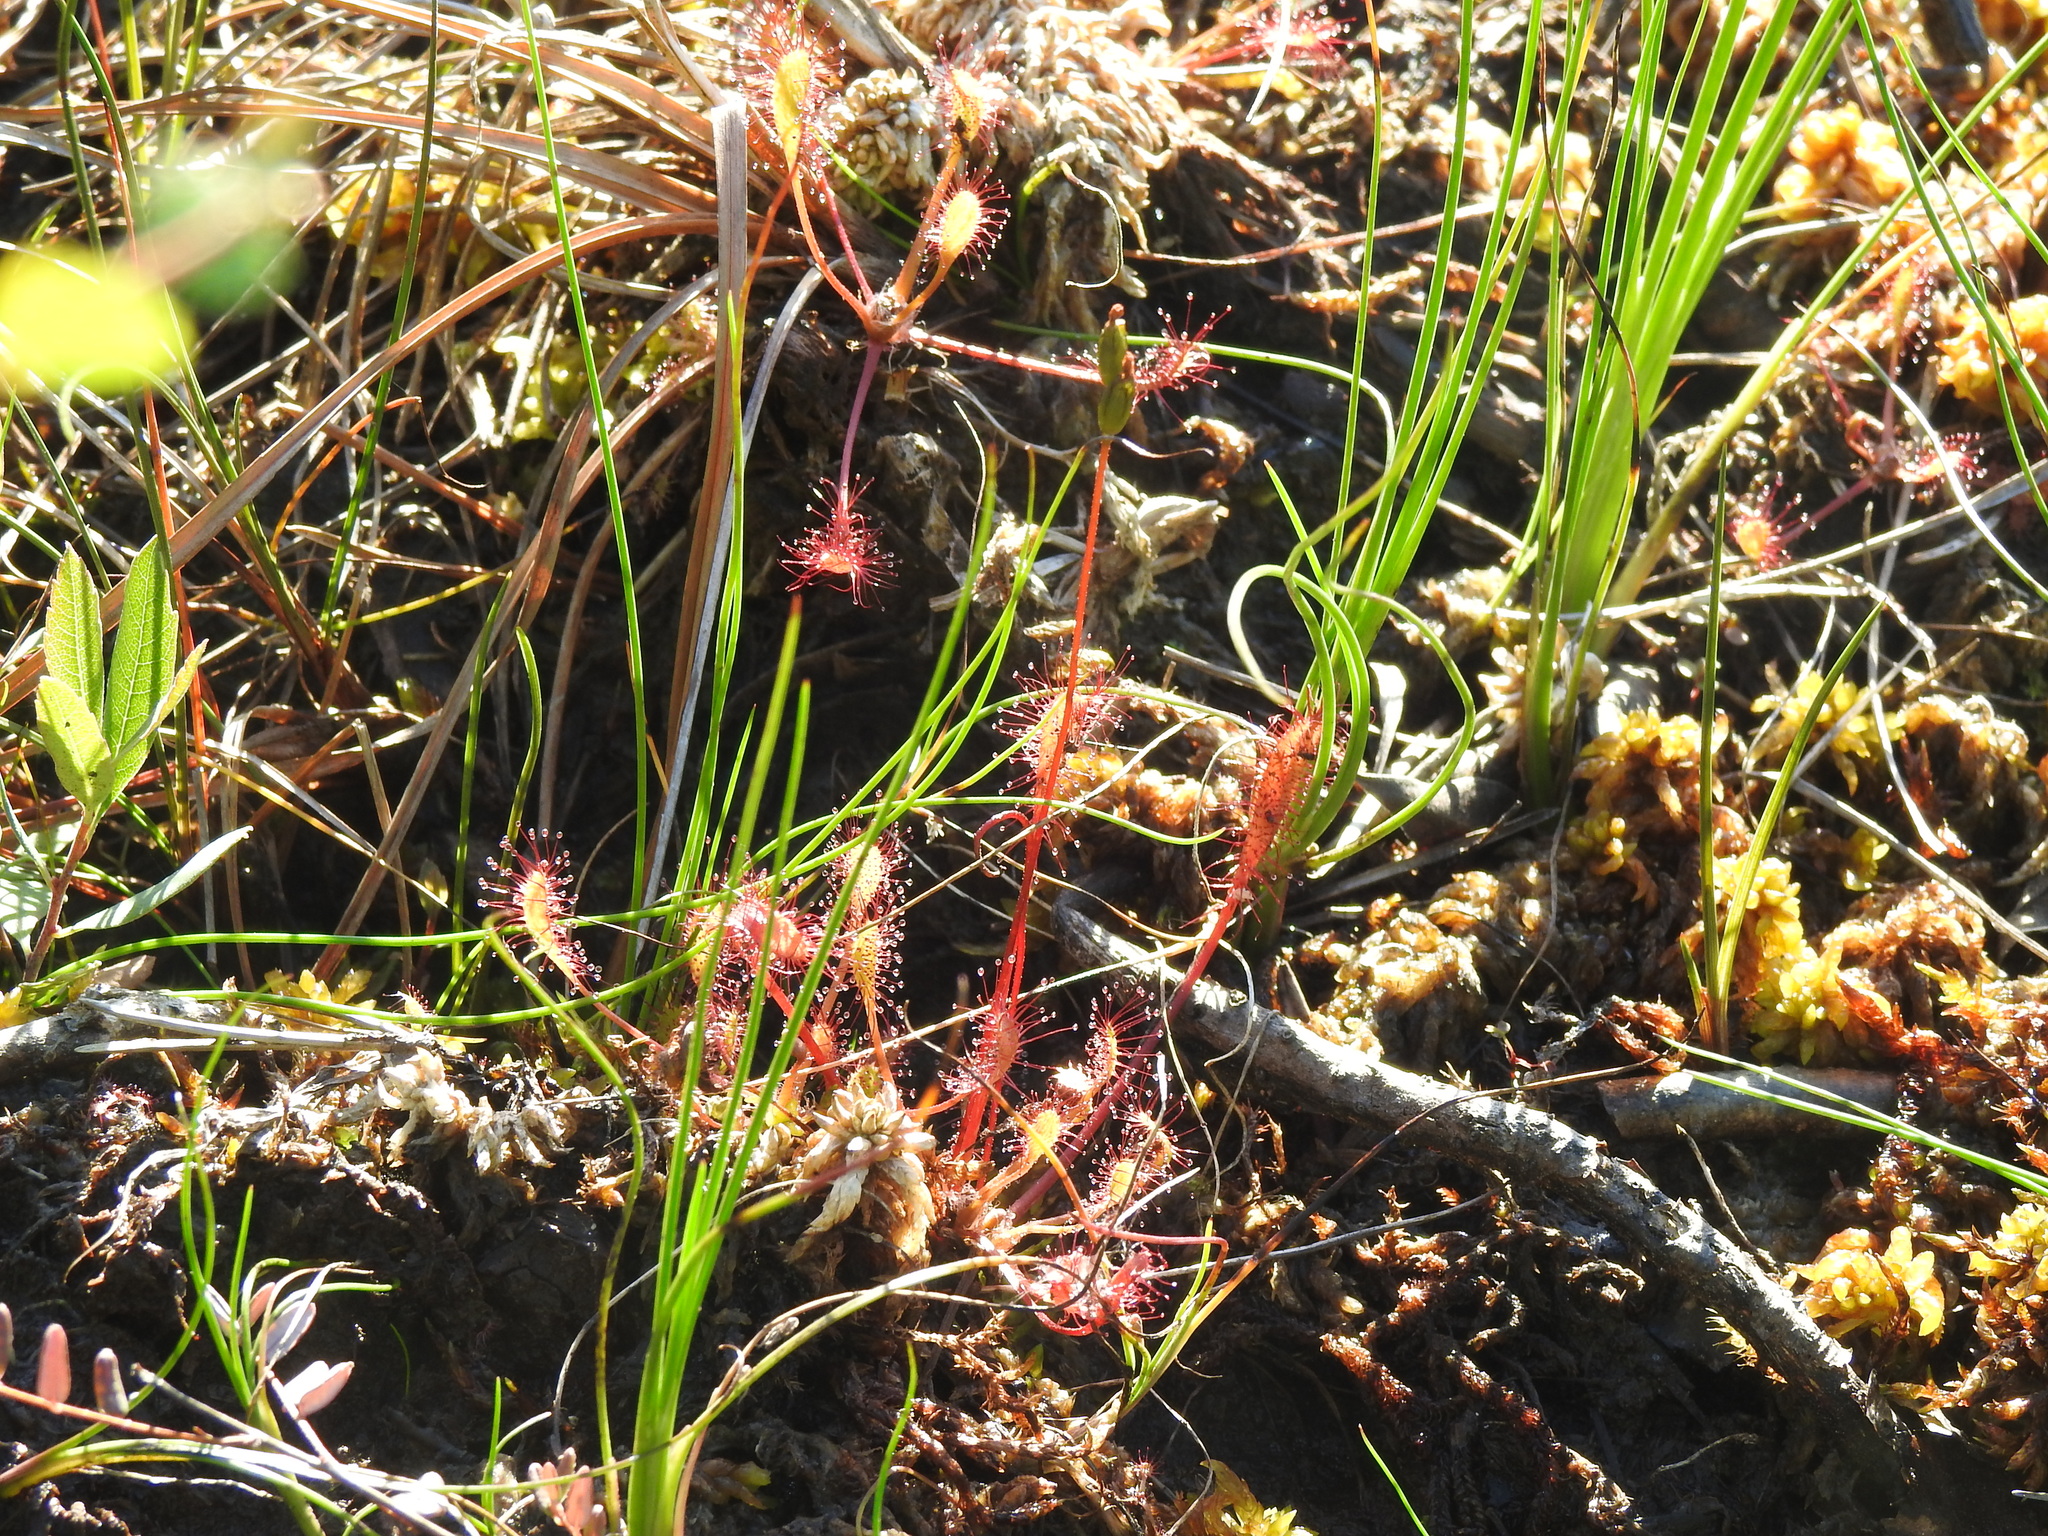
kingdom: Plantae
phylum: Tracheophyta
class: Magnoliopsida
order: Caryophyllales
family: Droseraceae
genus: Drosera
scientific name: Drosera anglica
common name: Great sundew
